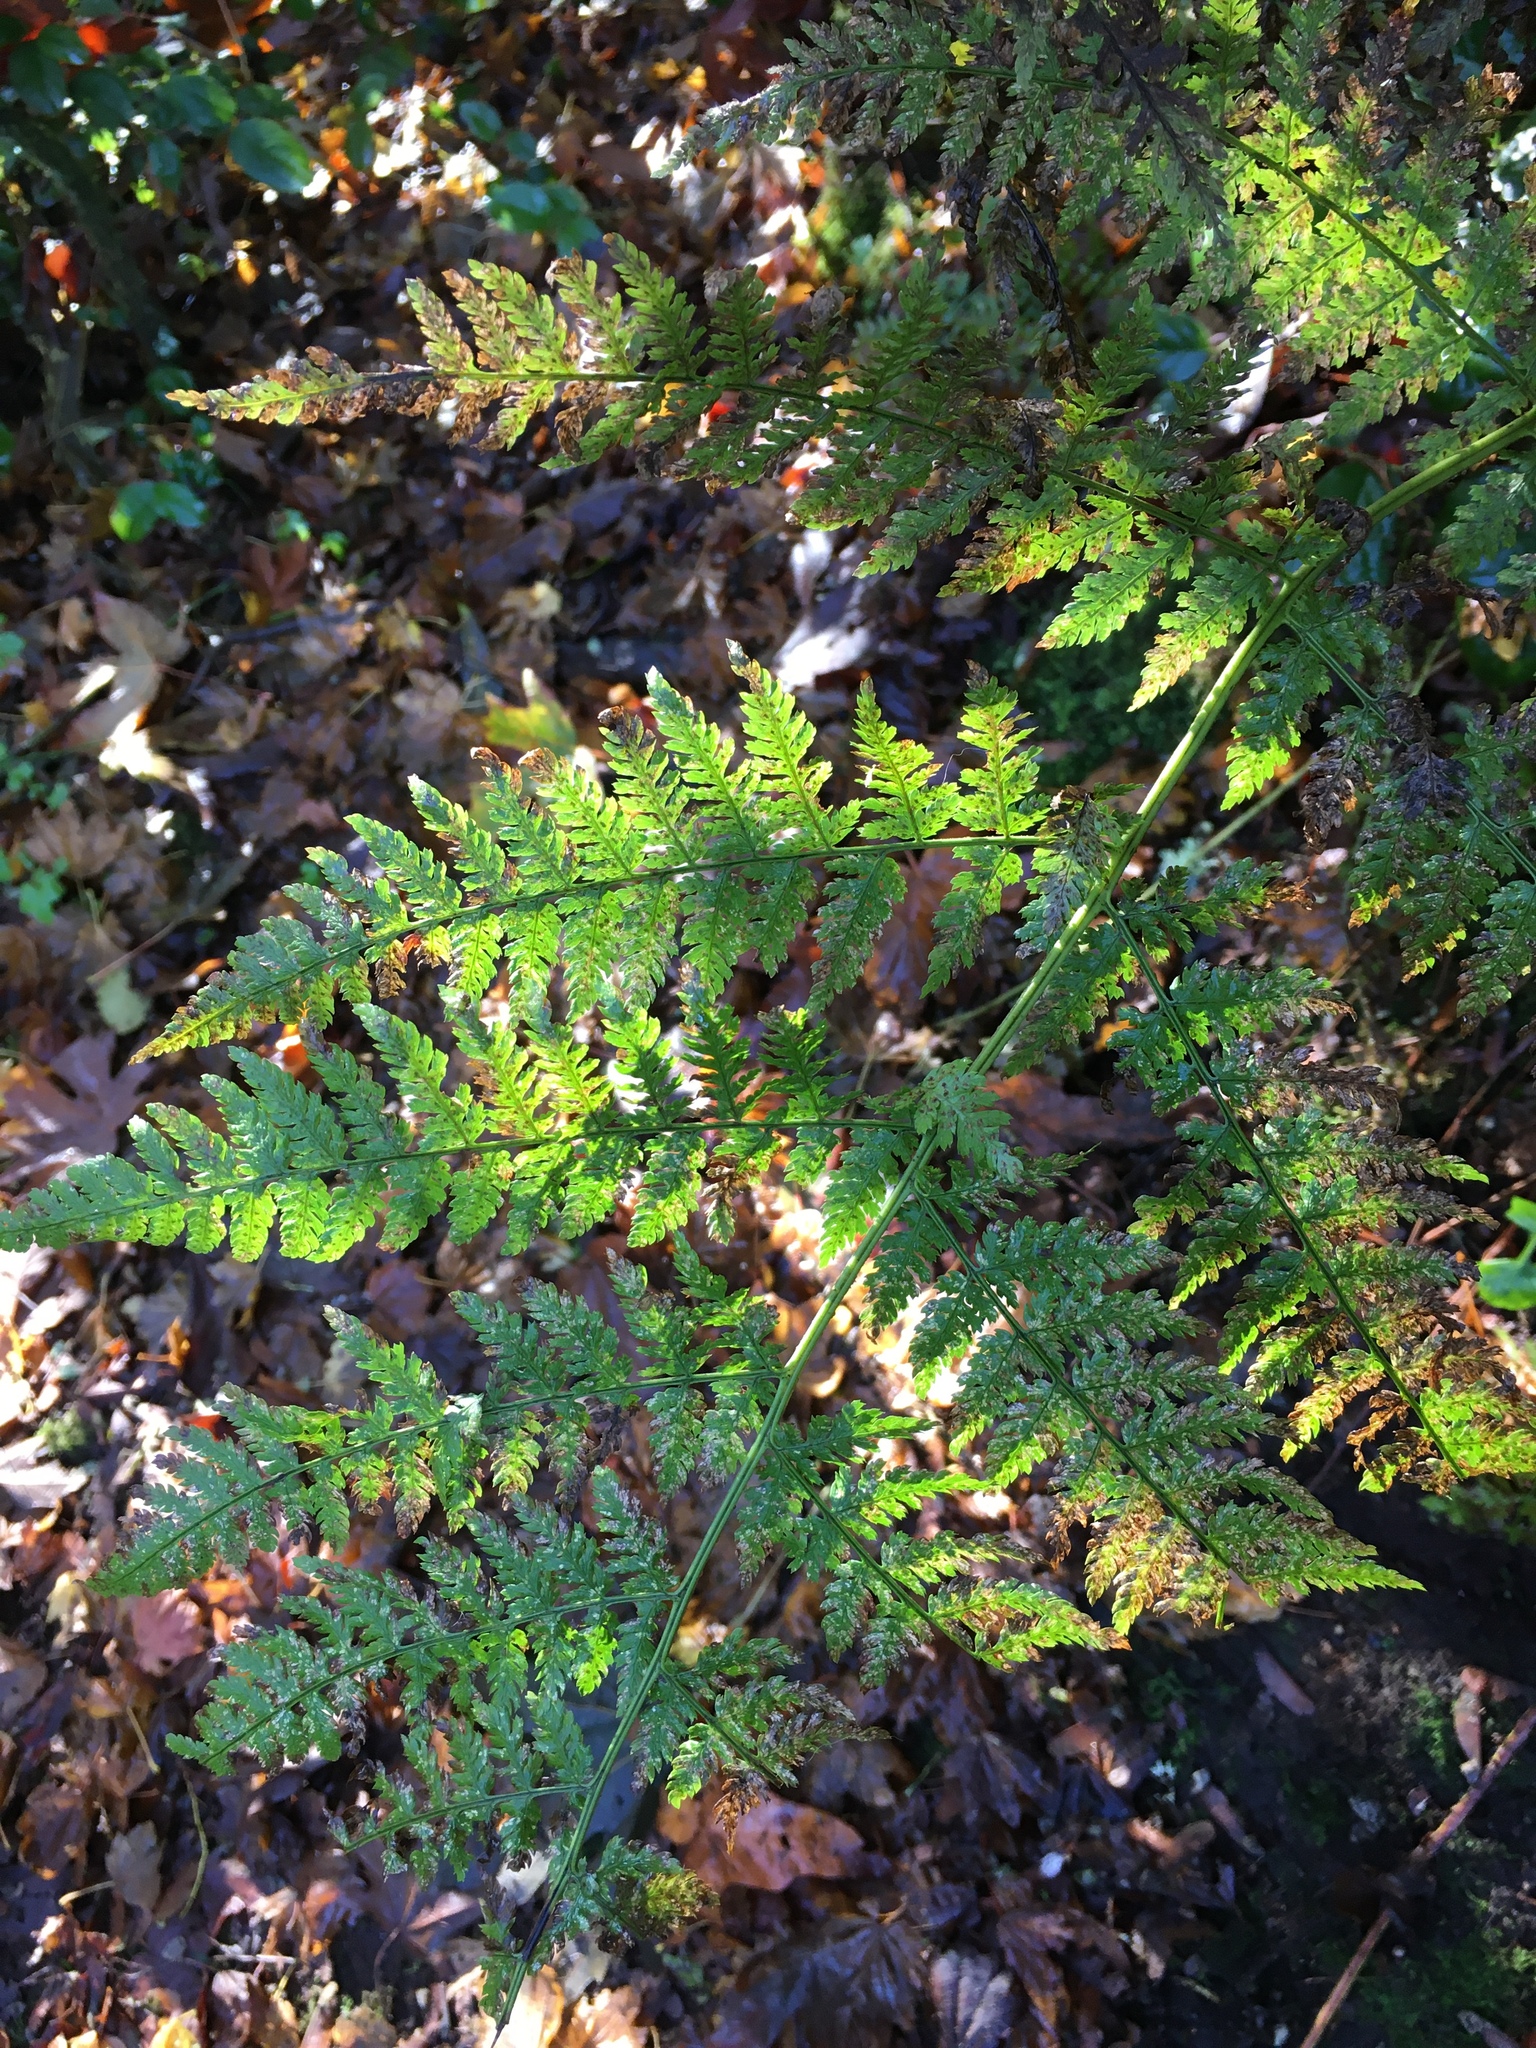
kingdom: Plantae
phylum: Tracheophyta
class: Polypodiopsida
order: Polypodiales
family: Dryopteridaceae
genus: Dryopteris
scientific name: Dryopteris expansa
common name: Northern buckler fern
